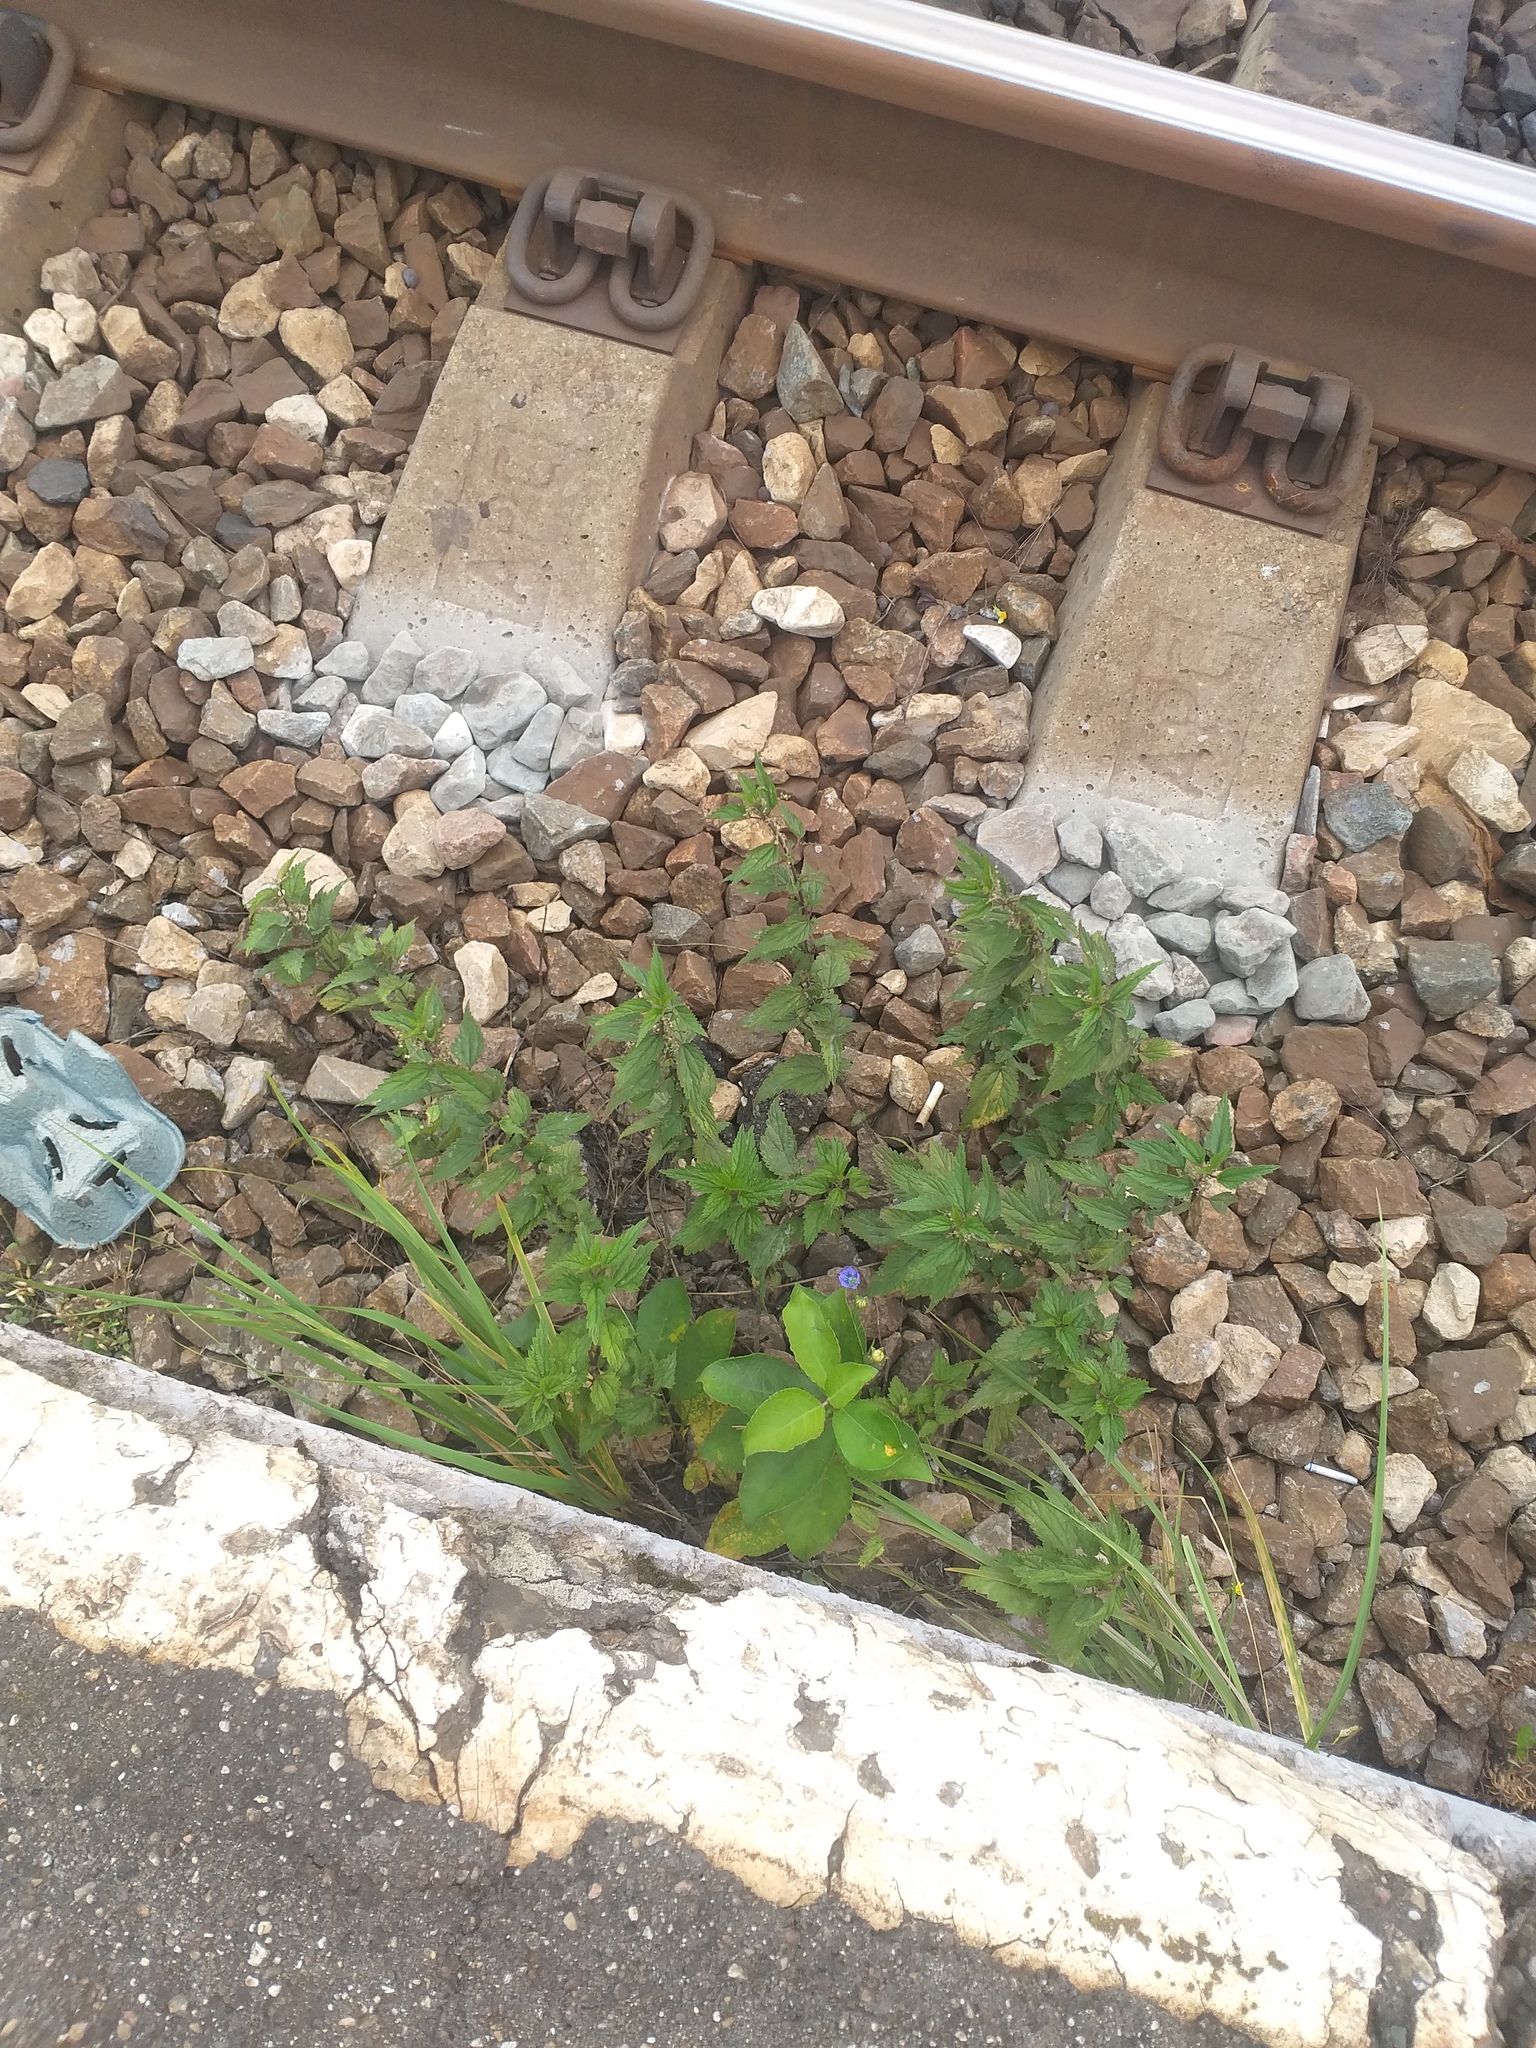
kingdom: Plantae
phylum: Tracheophyta
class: Magnoliopsida
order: Rosales
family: Urticaceae
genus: Urtica
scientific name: Urtica dioica
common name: Common nettle
